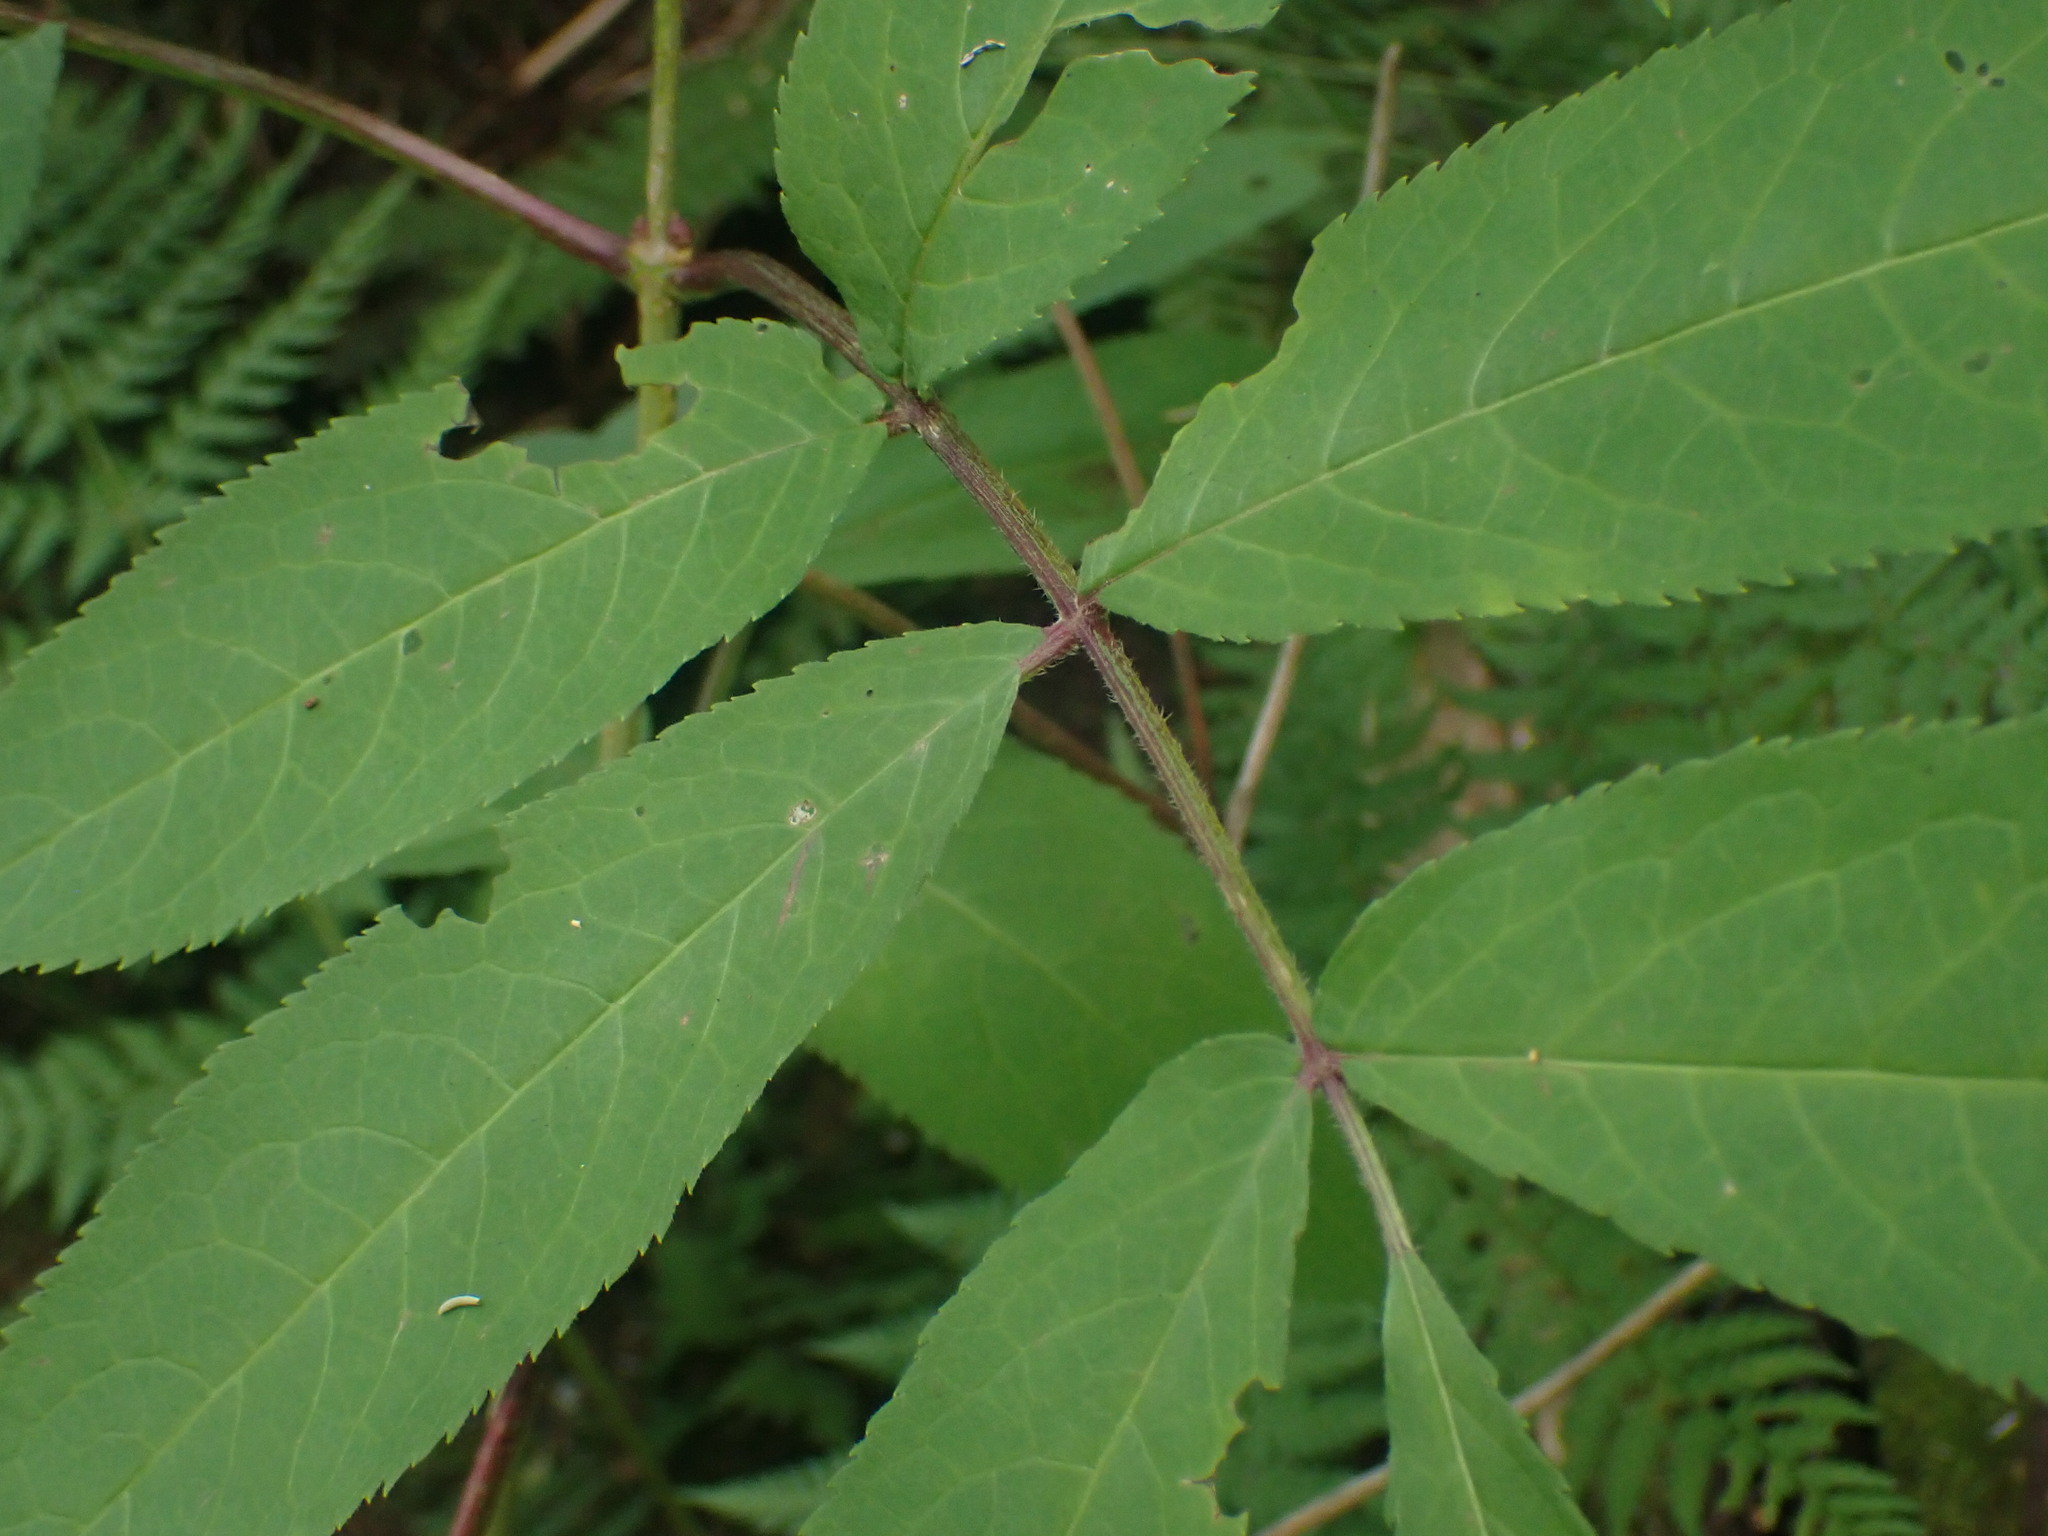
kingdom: Plantae
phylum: Tracheophyta
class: Magnoliopsida
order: Dipsacales
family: Viburnaceae
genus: Sambucus
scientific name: Sambucus racemosa
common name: Red-berried elder
